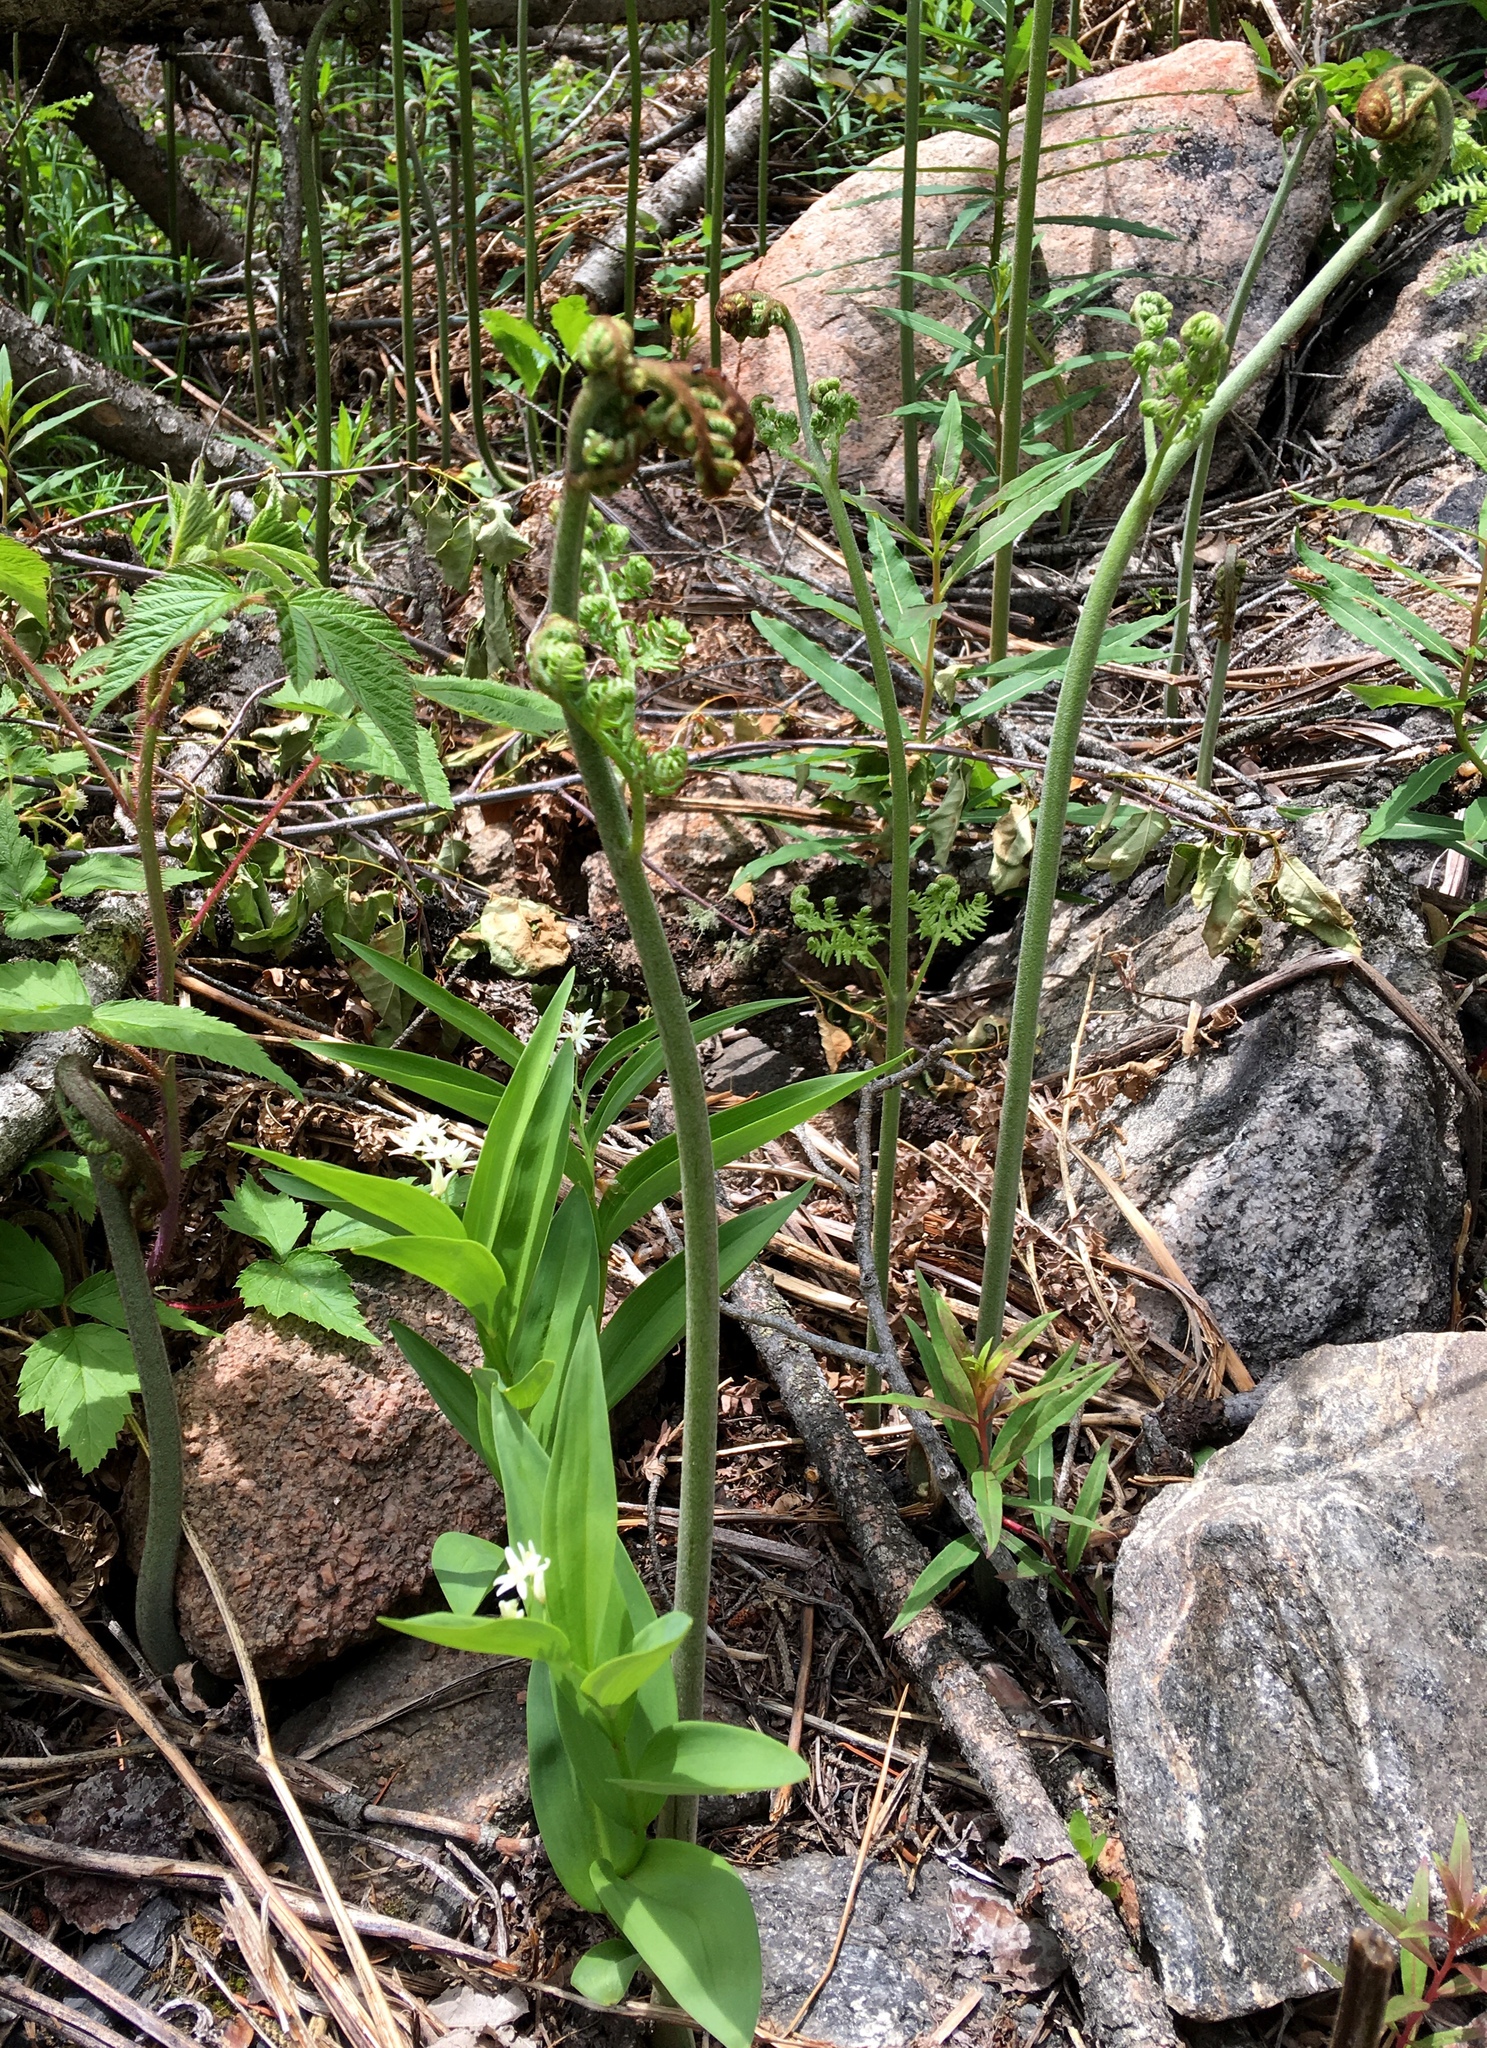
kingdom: Plantae
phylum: Tracheophyta
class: Liliopsida
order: Asparagales
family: Asparagaceae
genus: Maianthemum
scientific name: Maianthemum stellatum
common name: Little false solomon's seal
